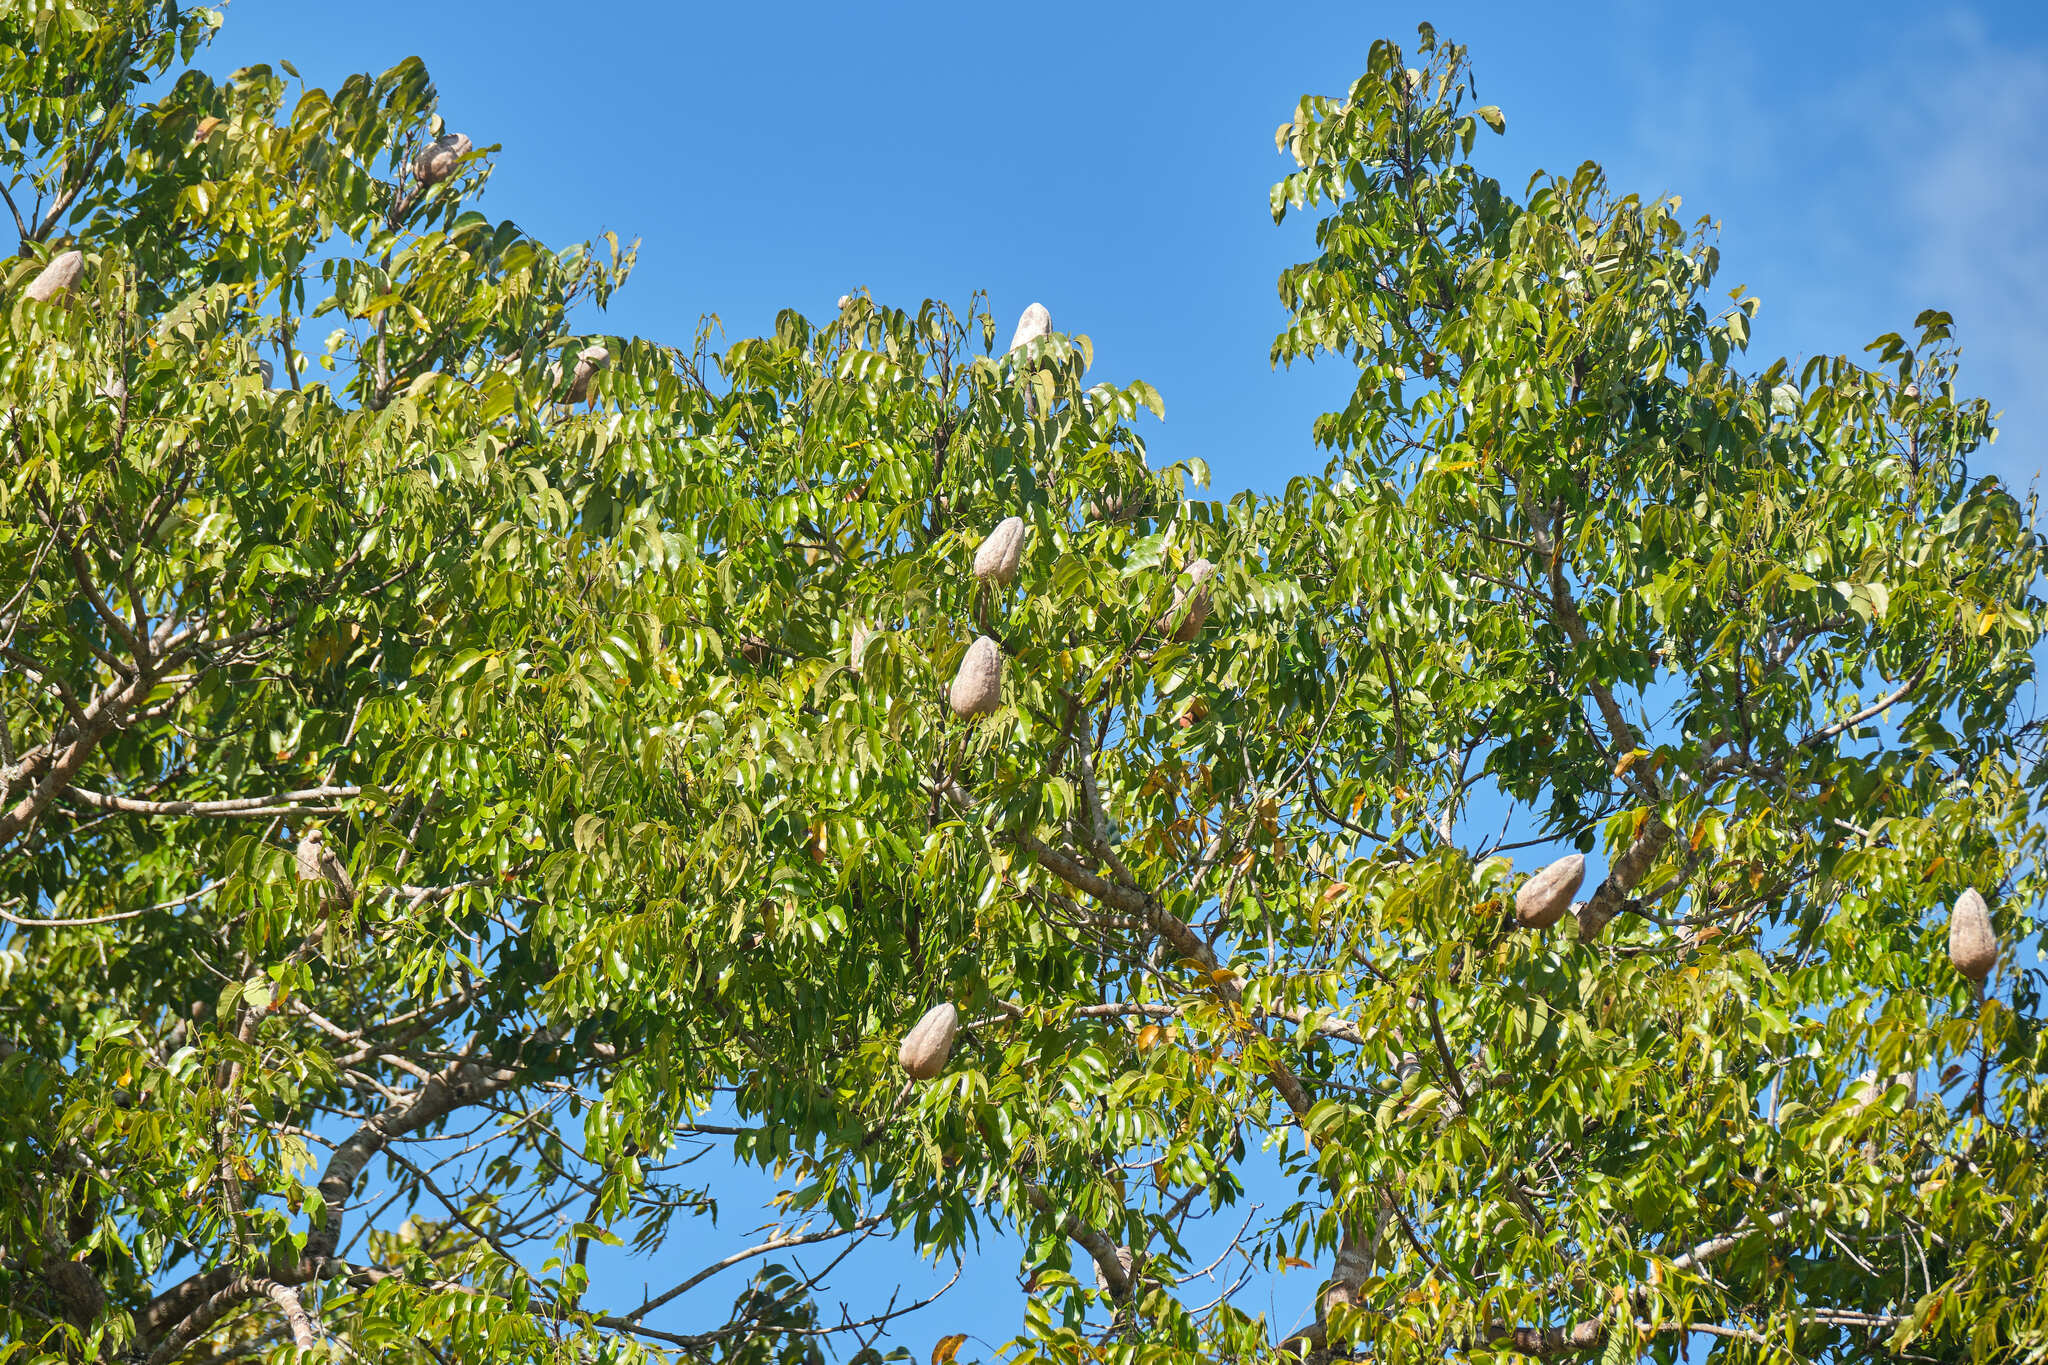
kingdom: Plantae
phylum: Tracheophyta
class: Magnoliopsida
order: Sapindales
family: Meliaceae
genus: Swietenia
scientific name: Swietenia macrophylla
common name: Honduras mahogany
